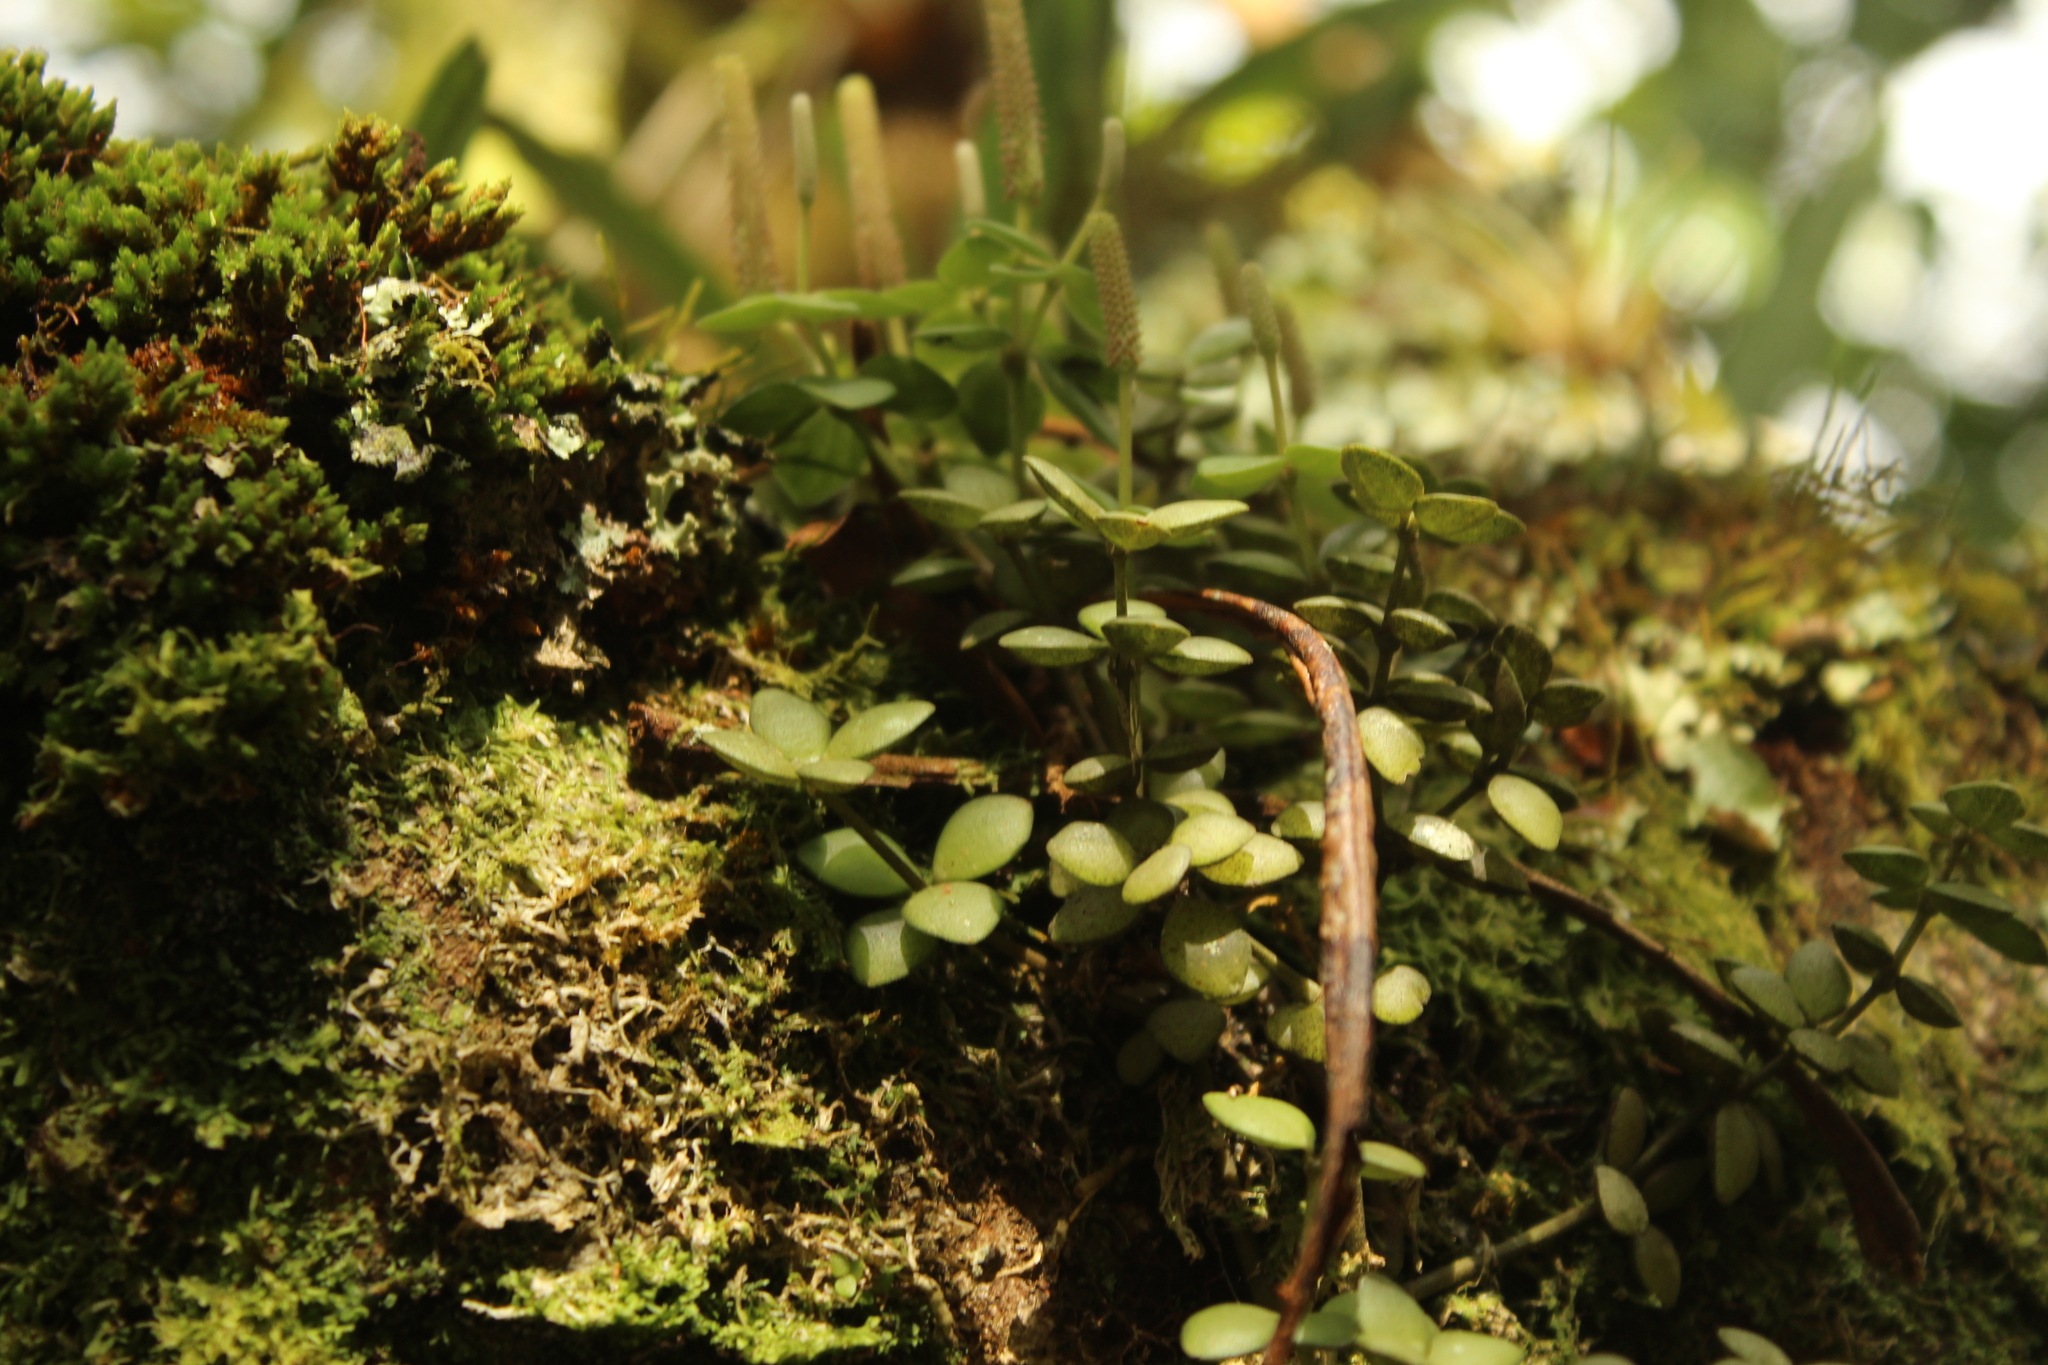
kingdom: Plantae
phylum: Tracheophyta
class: Magnoliopsida
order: Piperales
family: Piperaceae
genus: Peperomia
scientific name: Peperomia tetraphylla
